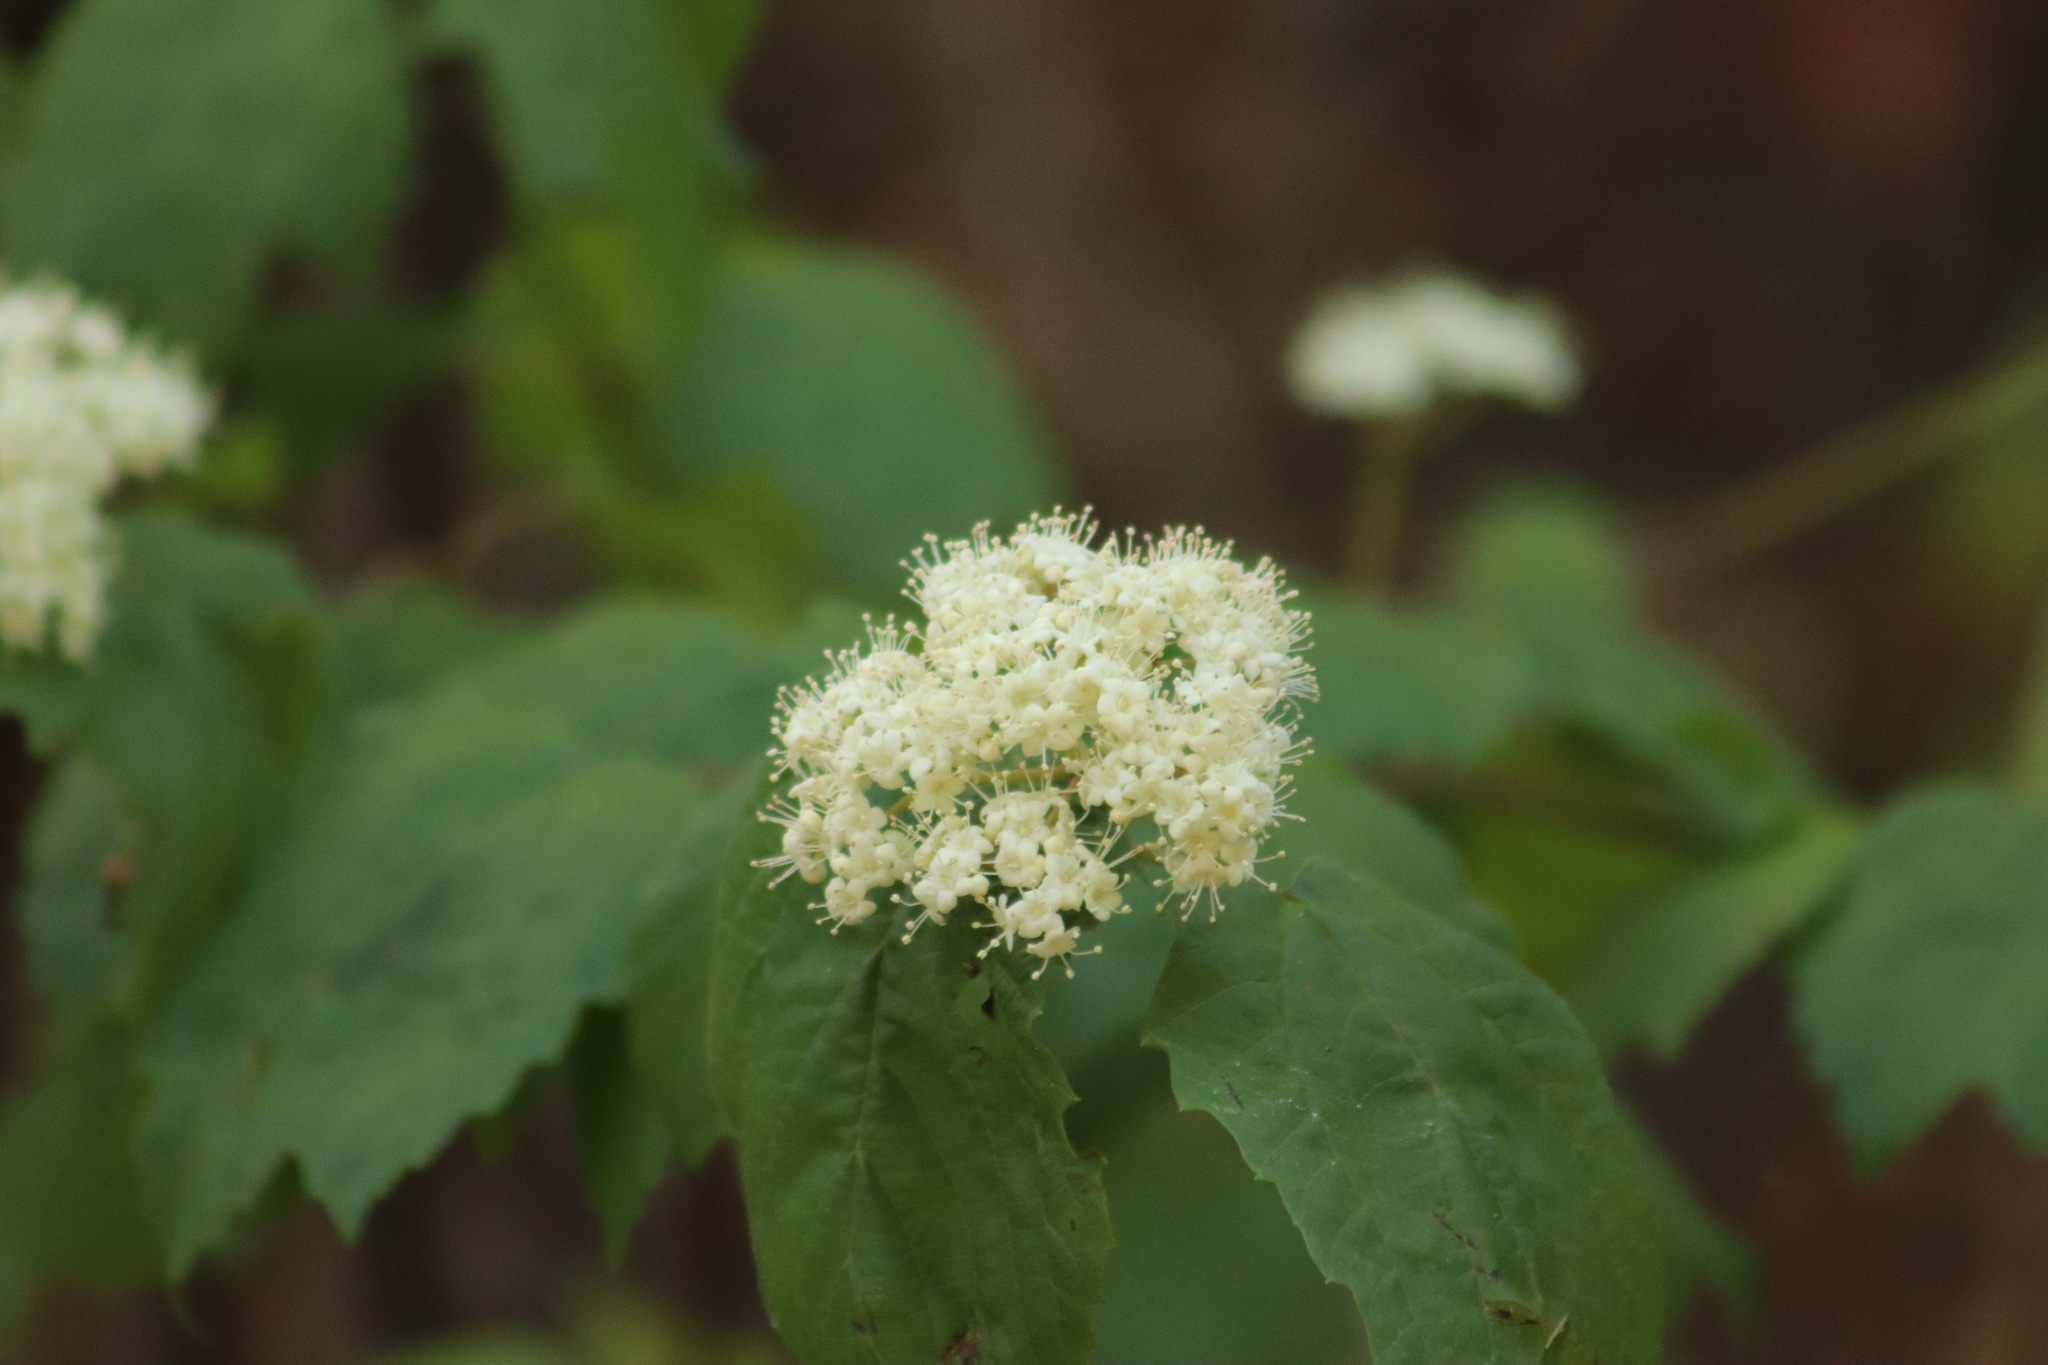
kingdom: Plantae
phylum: Tracheophyta
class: Magnoliopsida
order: Dipsacales
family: Viburnaceae
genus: Viburnum
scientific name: Viburnum acerifolium
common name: Dockmackie
